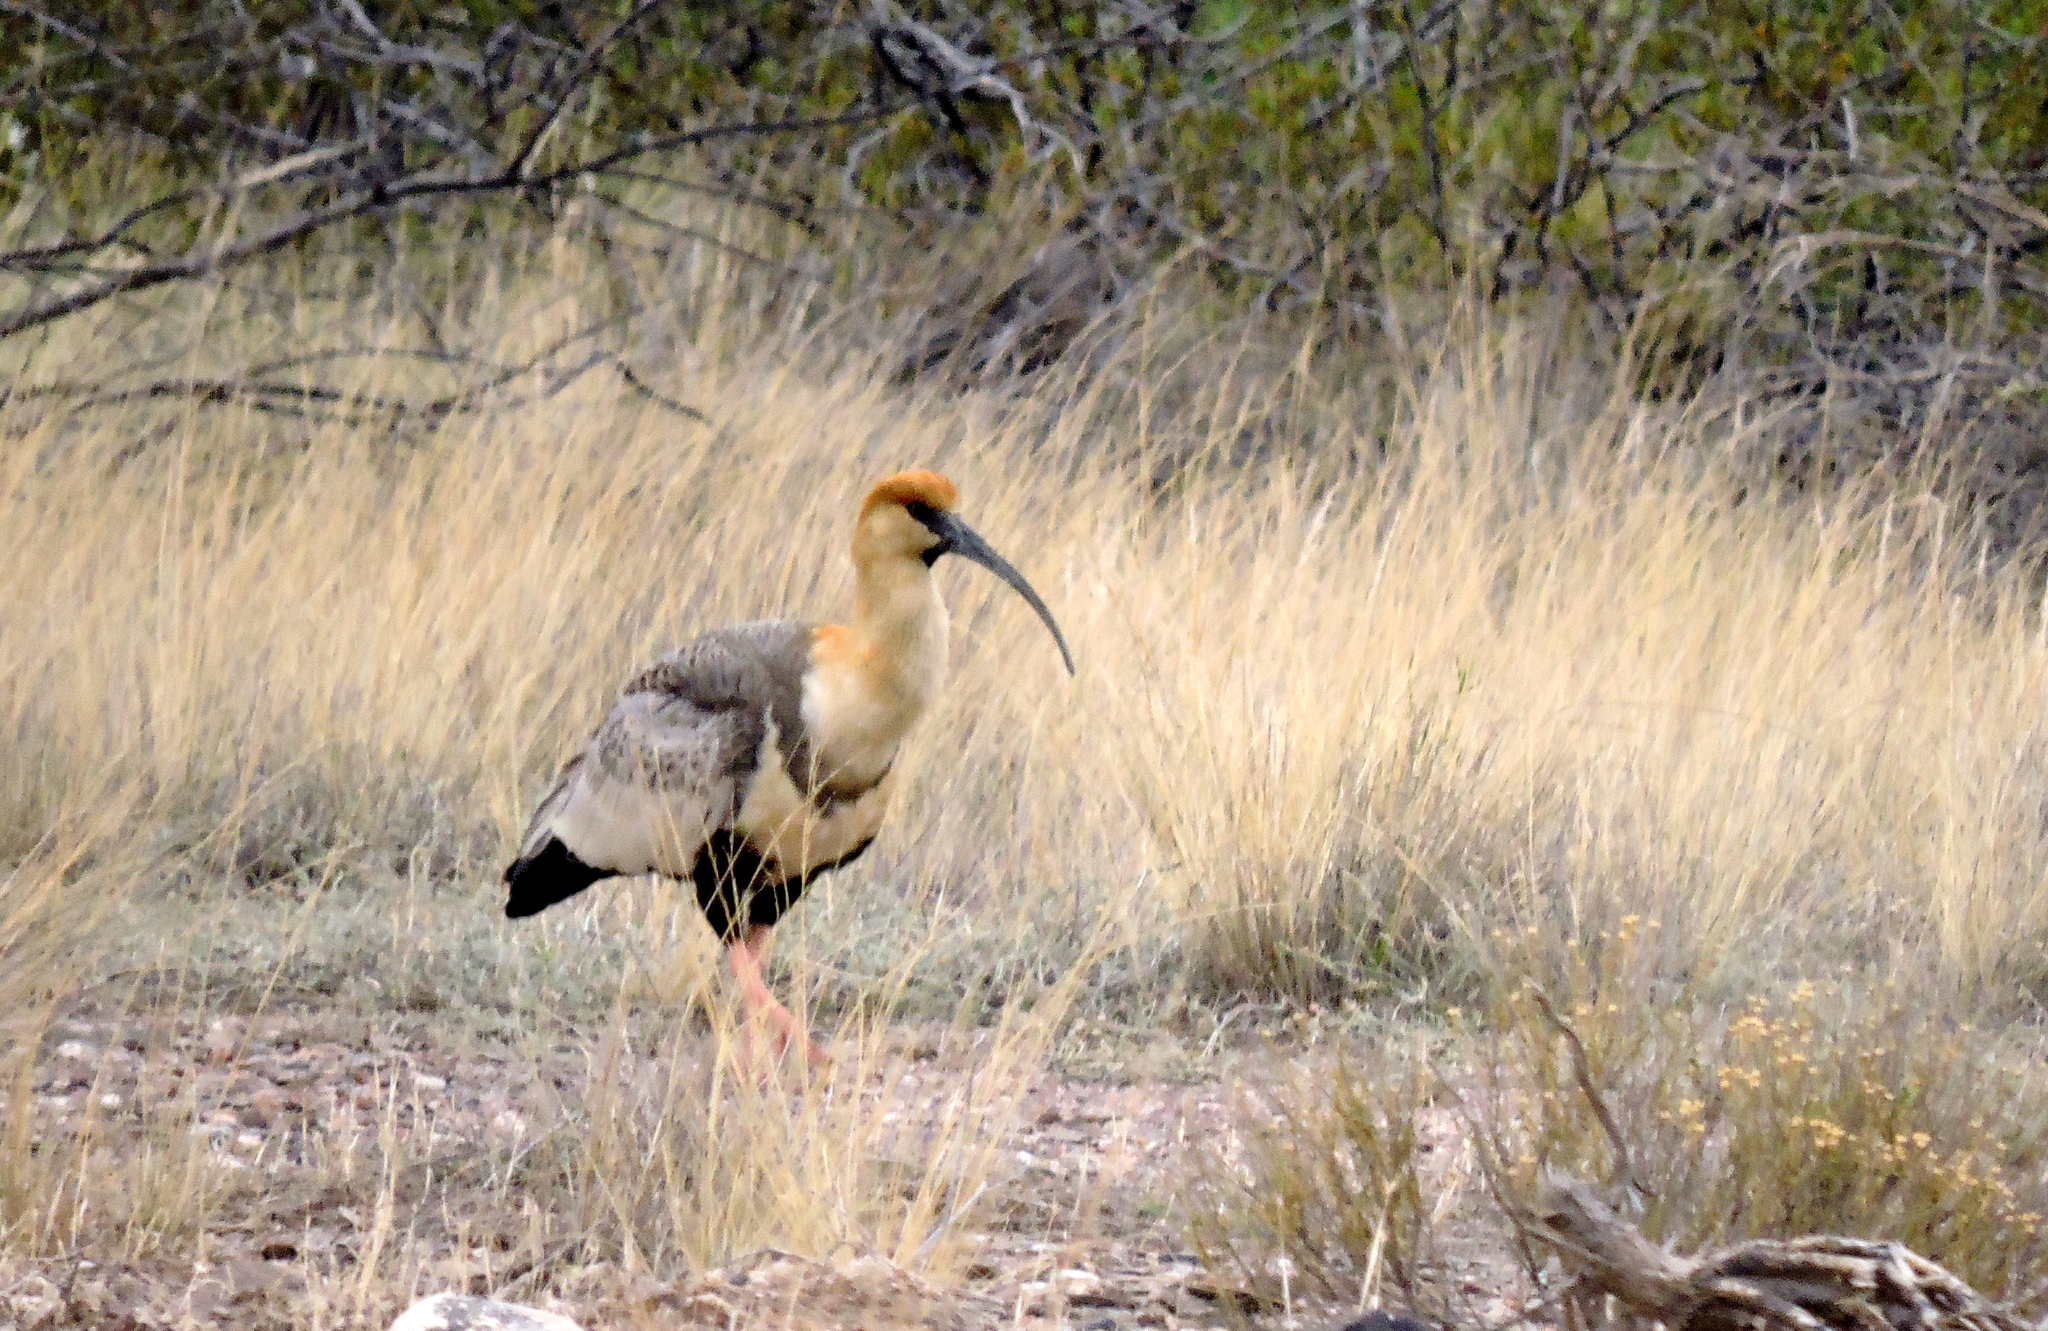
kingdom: Animalia
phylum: Chordata
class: Aves
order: Pelecaniformes
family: Threskiornithidae
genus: Theristicus
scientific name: Theristicus melanopis
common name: Black-faced ibis
